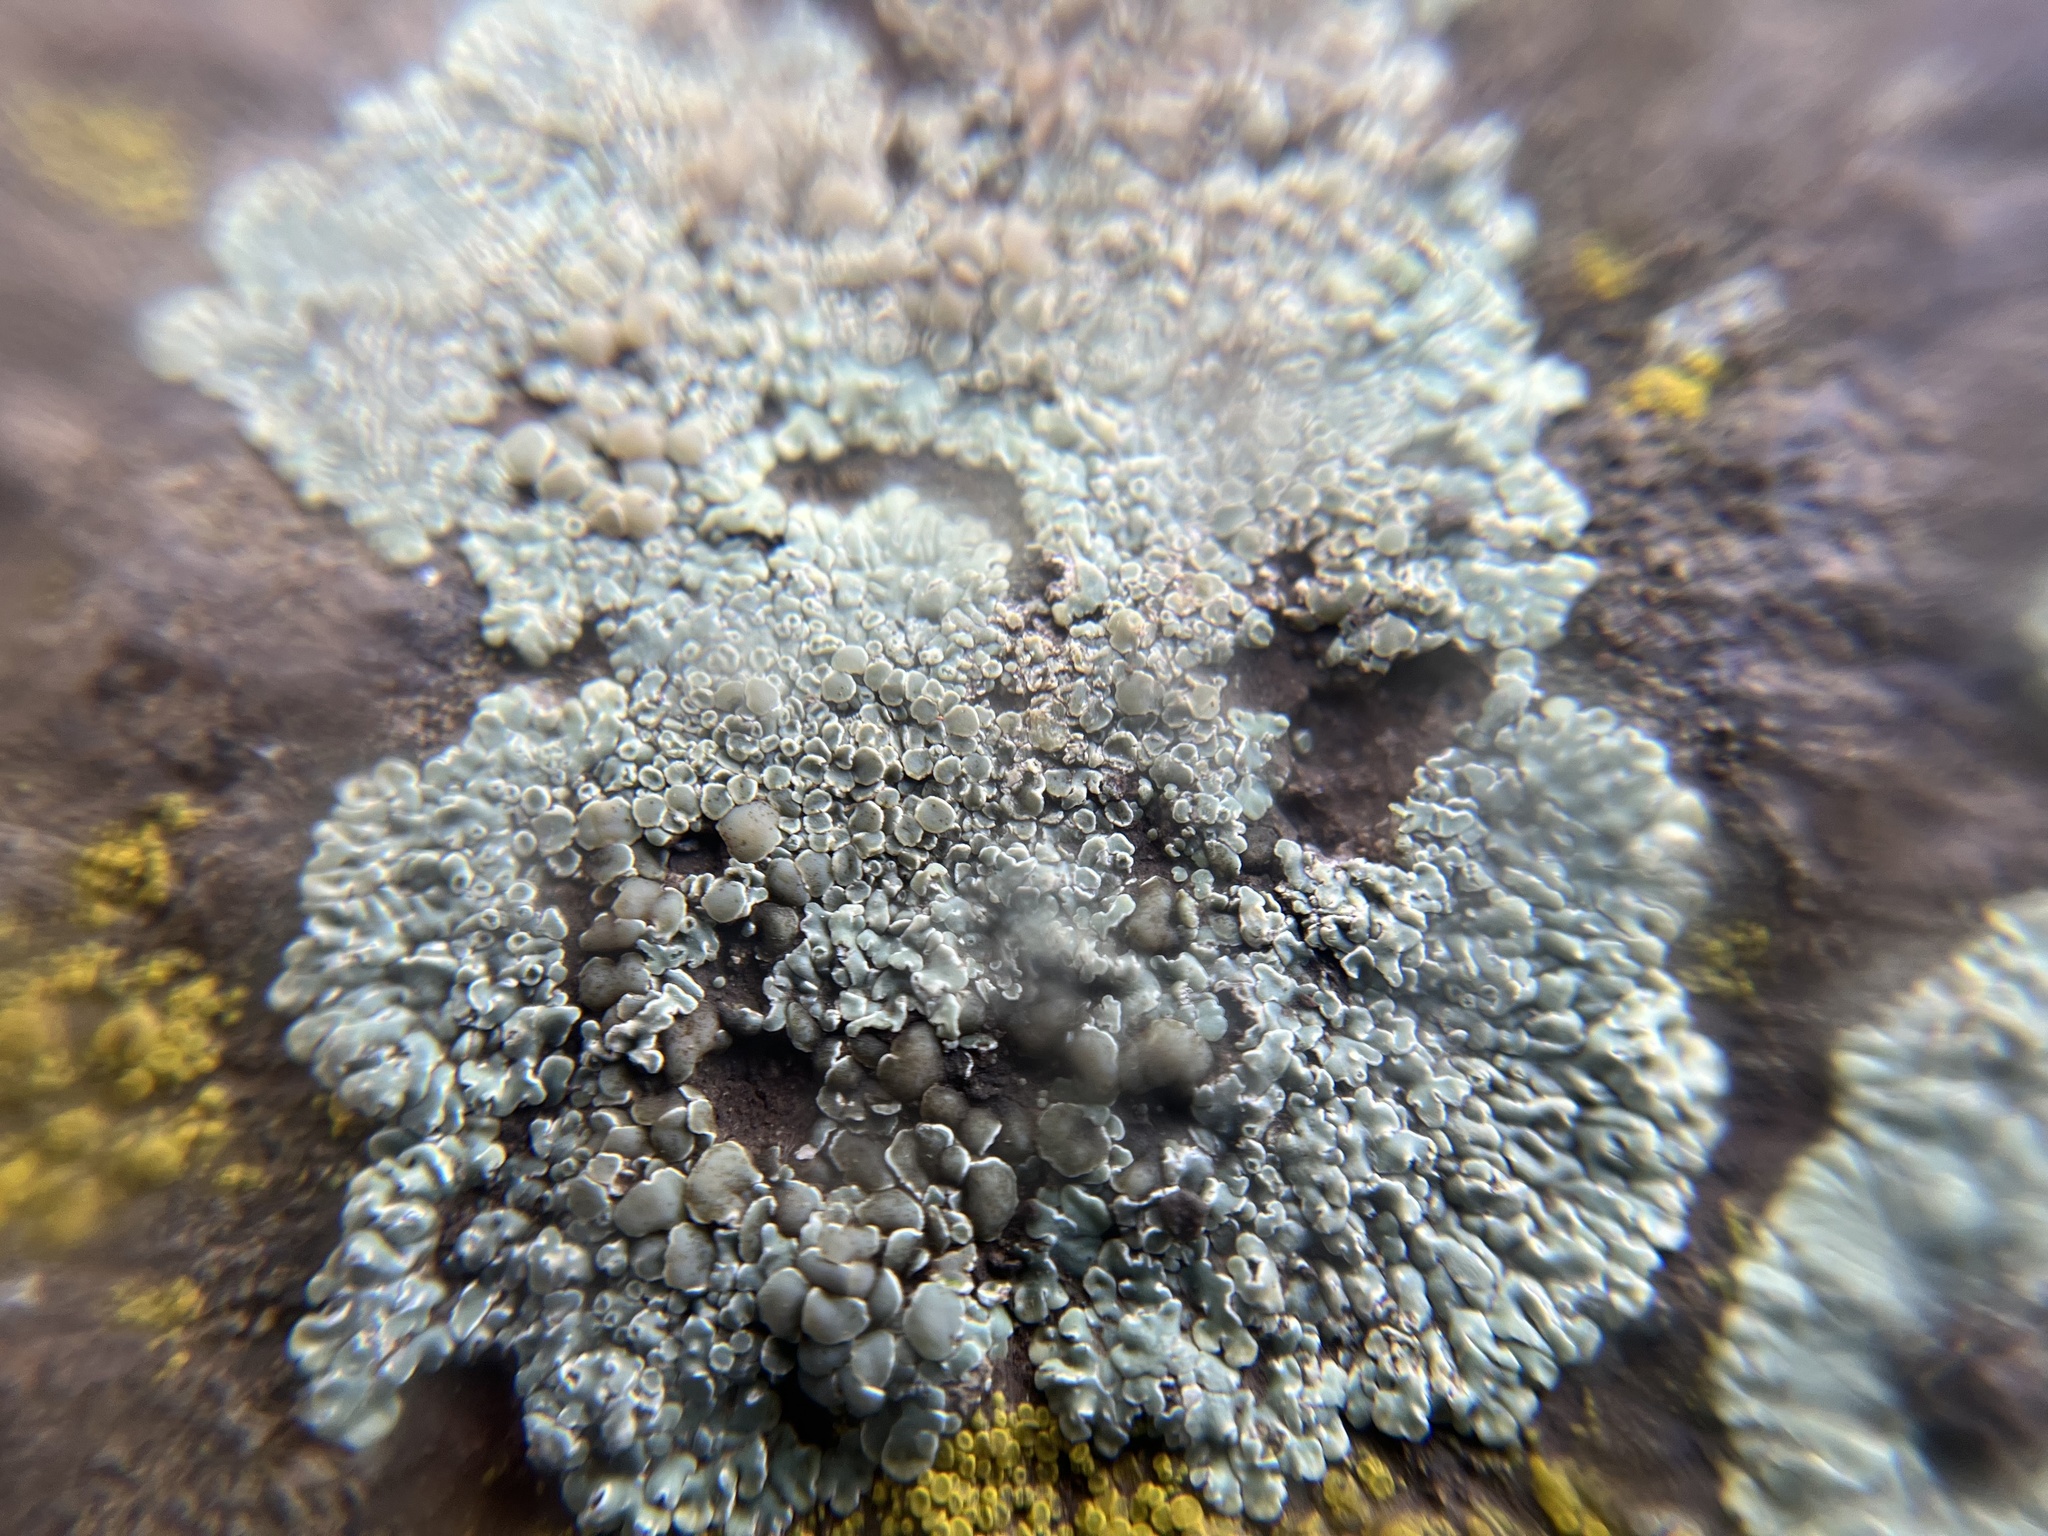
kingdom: Fungi
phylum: Ascomycota
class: Lecanoromycetes
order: Lecanorales
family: Lecanoraceae
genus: Protoparmeliopsis
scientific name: Protoparmeliopsis muralis
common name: Stonewall rim lichen
